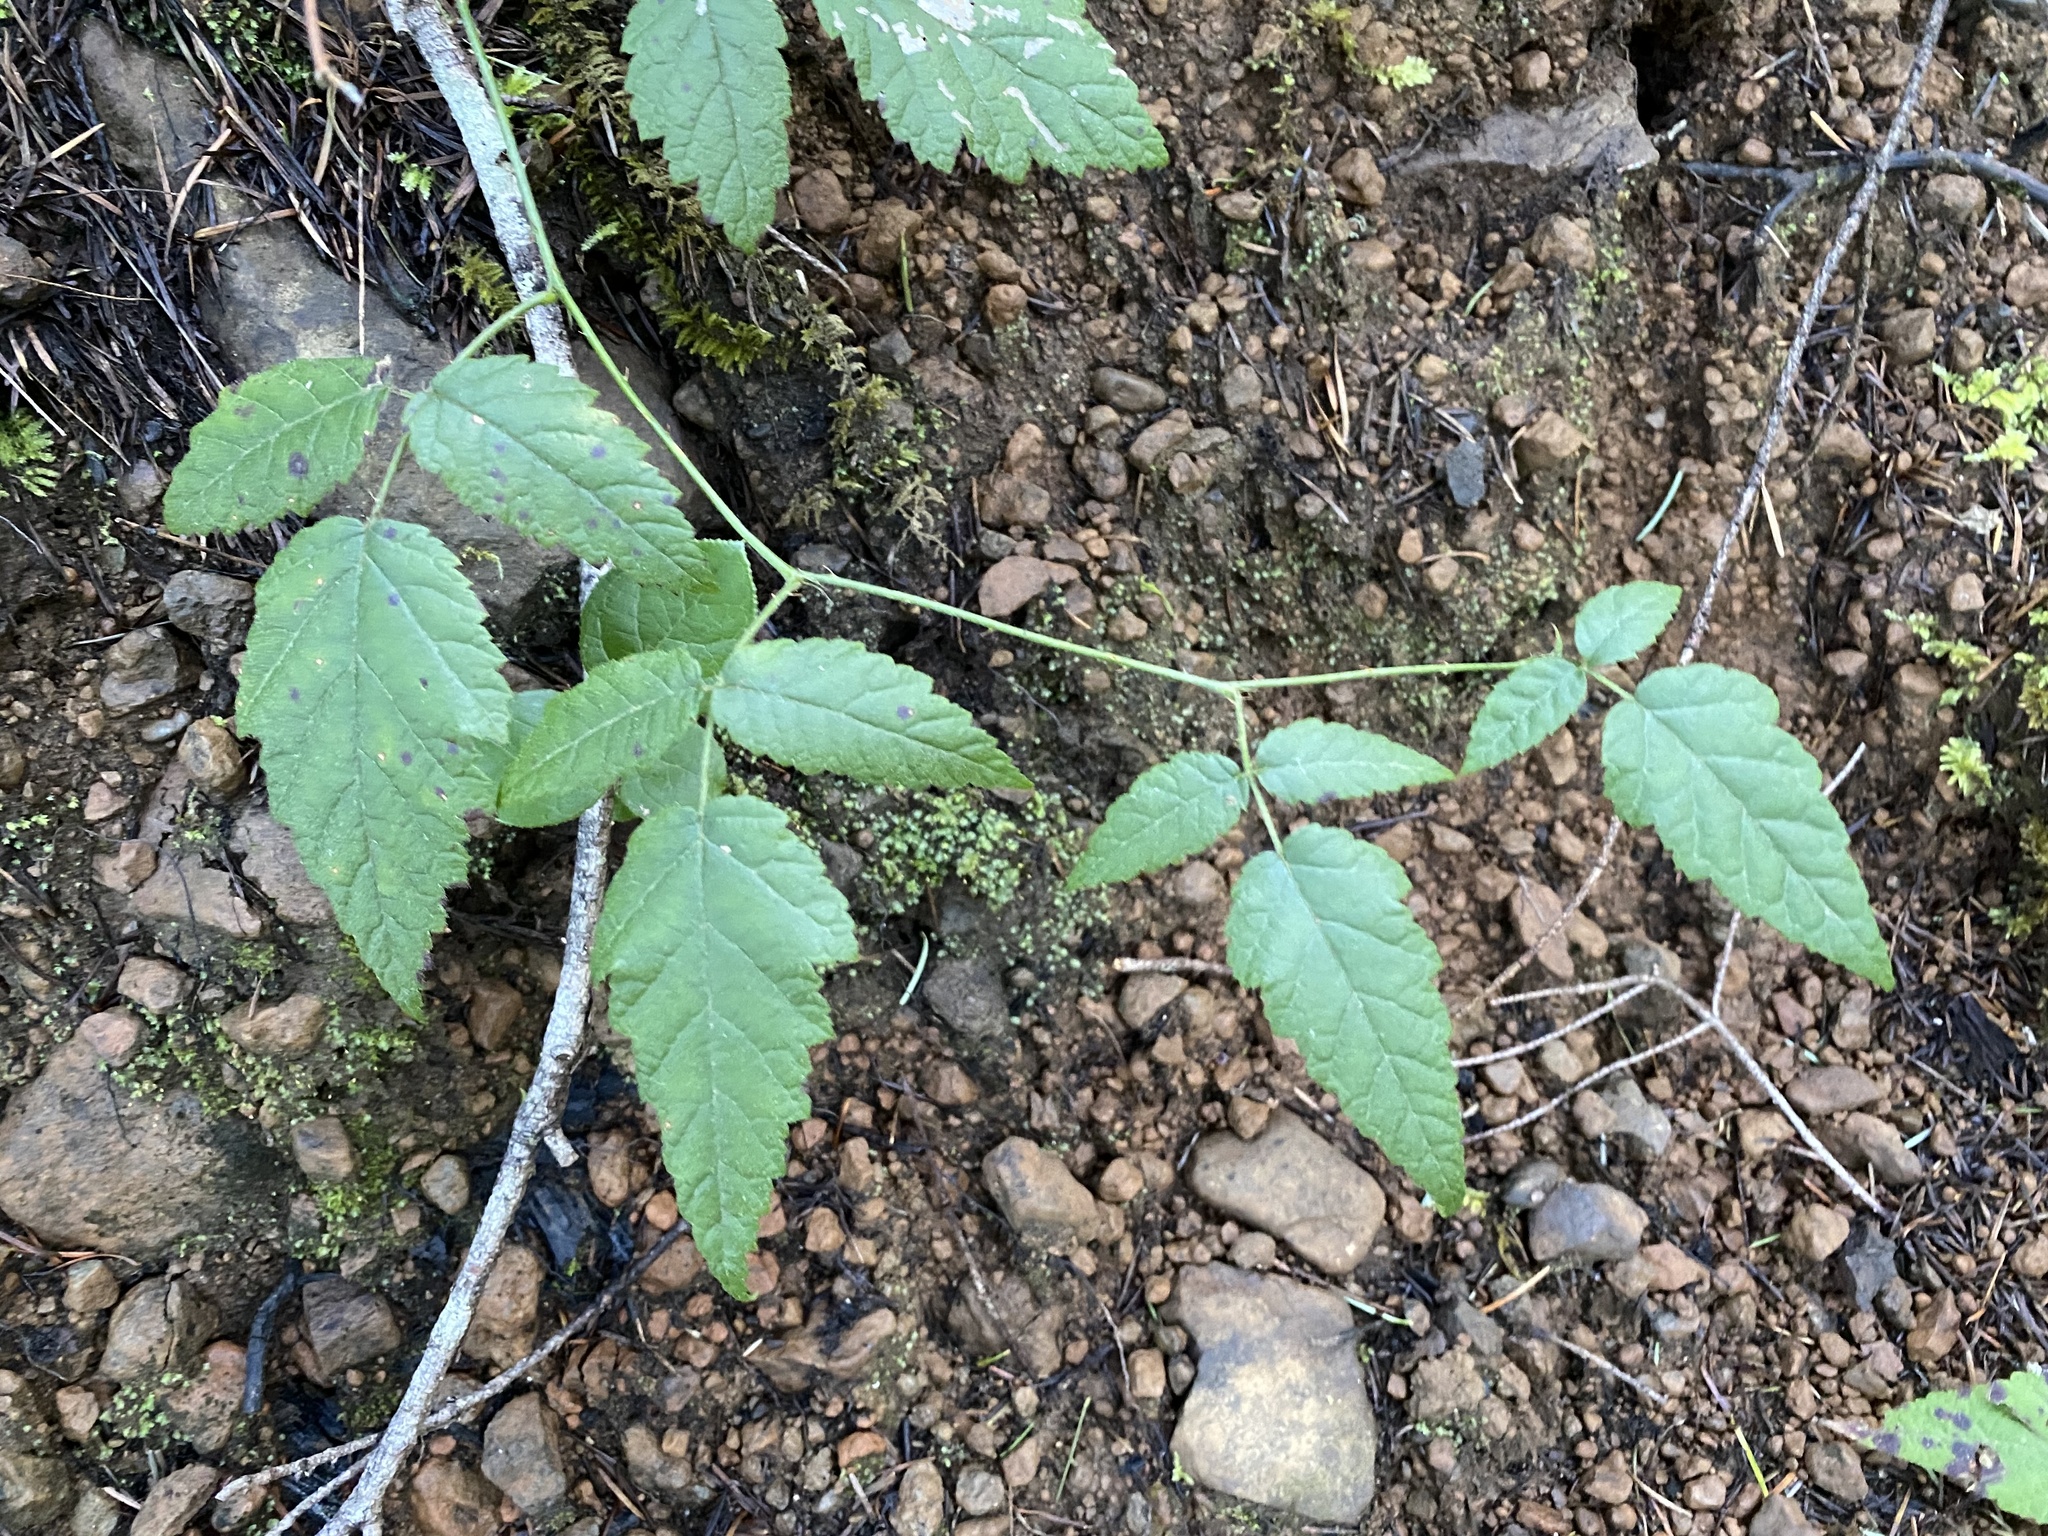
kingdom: Plantae
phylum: Tracheophyta
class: Magnoliopsida
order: Rosales
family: Rosaceae
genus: Rubus
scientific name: Rubus ursinus
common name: Pacific blackberry
